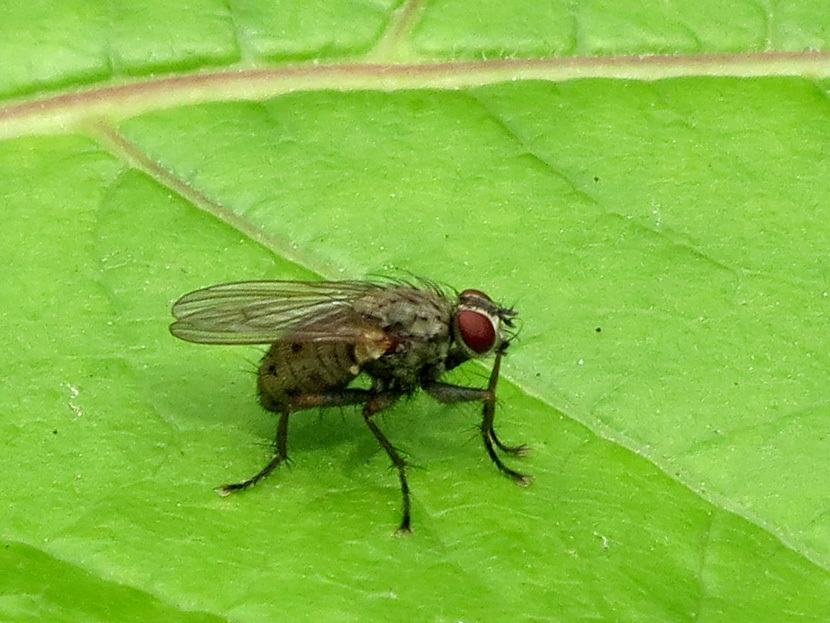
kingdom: Animalia
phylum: Arthropoda
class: Insecta
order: Diptera
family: Muscidae
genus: Coenosia
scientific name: Coenosia tigrina
